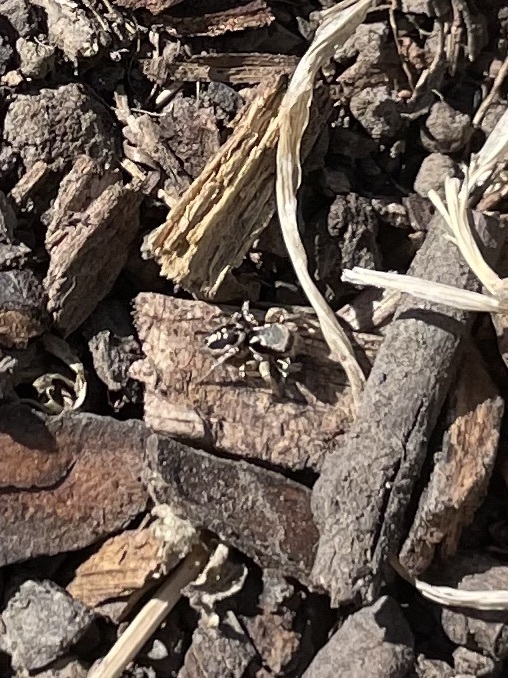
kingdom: Animalia
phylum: Arthropoda
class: Arachnida
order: Araneae
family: Salticidae
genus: Habronattus
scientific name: Habronattus pyrrithrix
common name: Jumping spider
